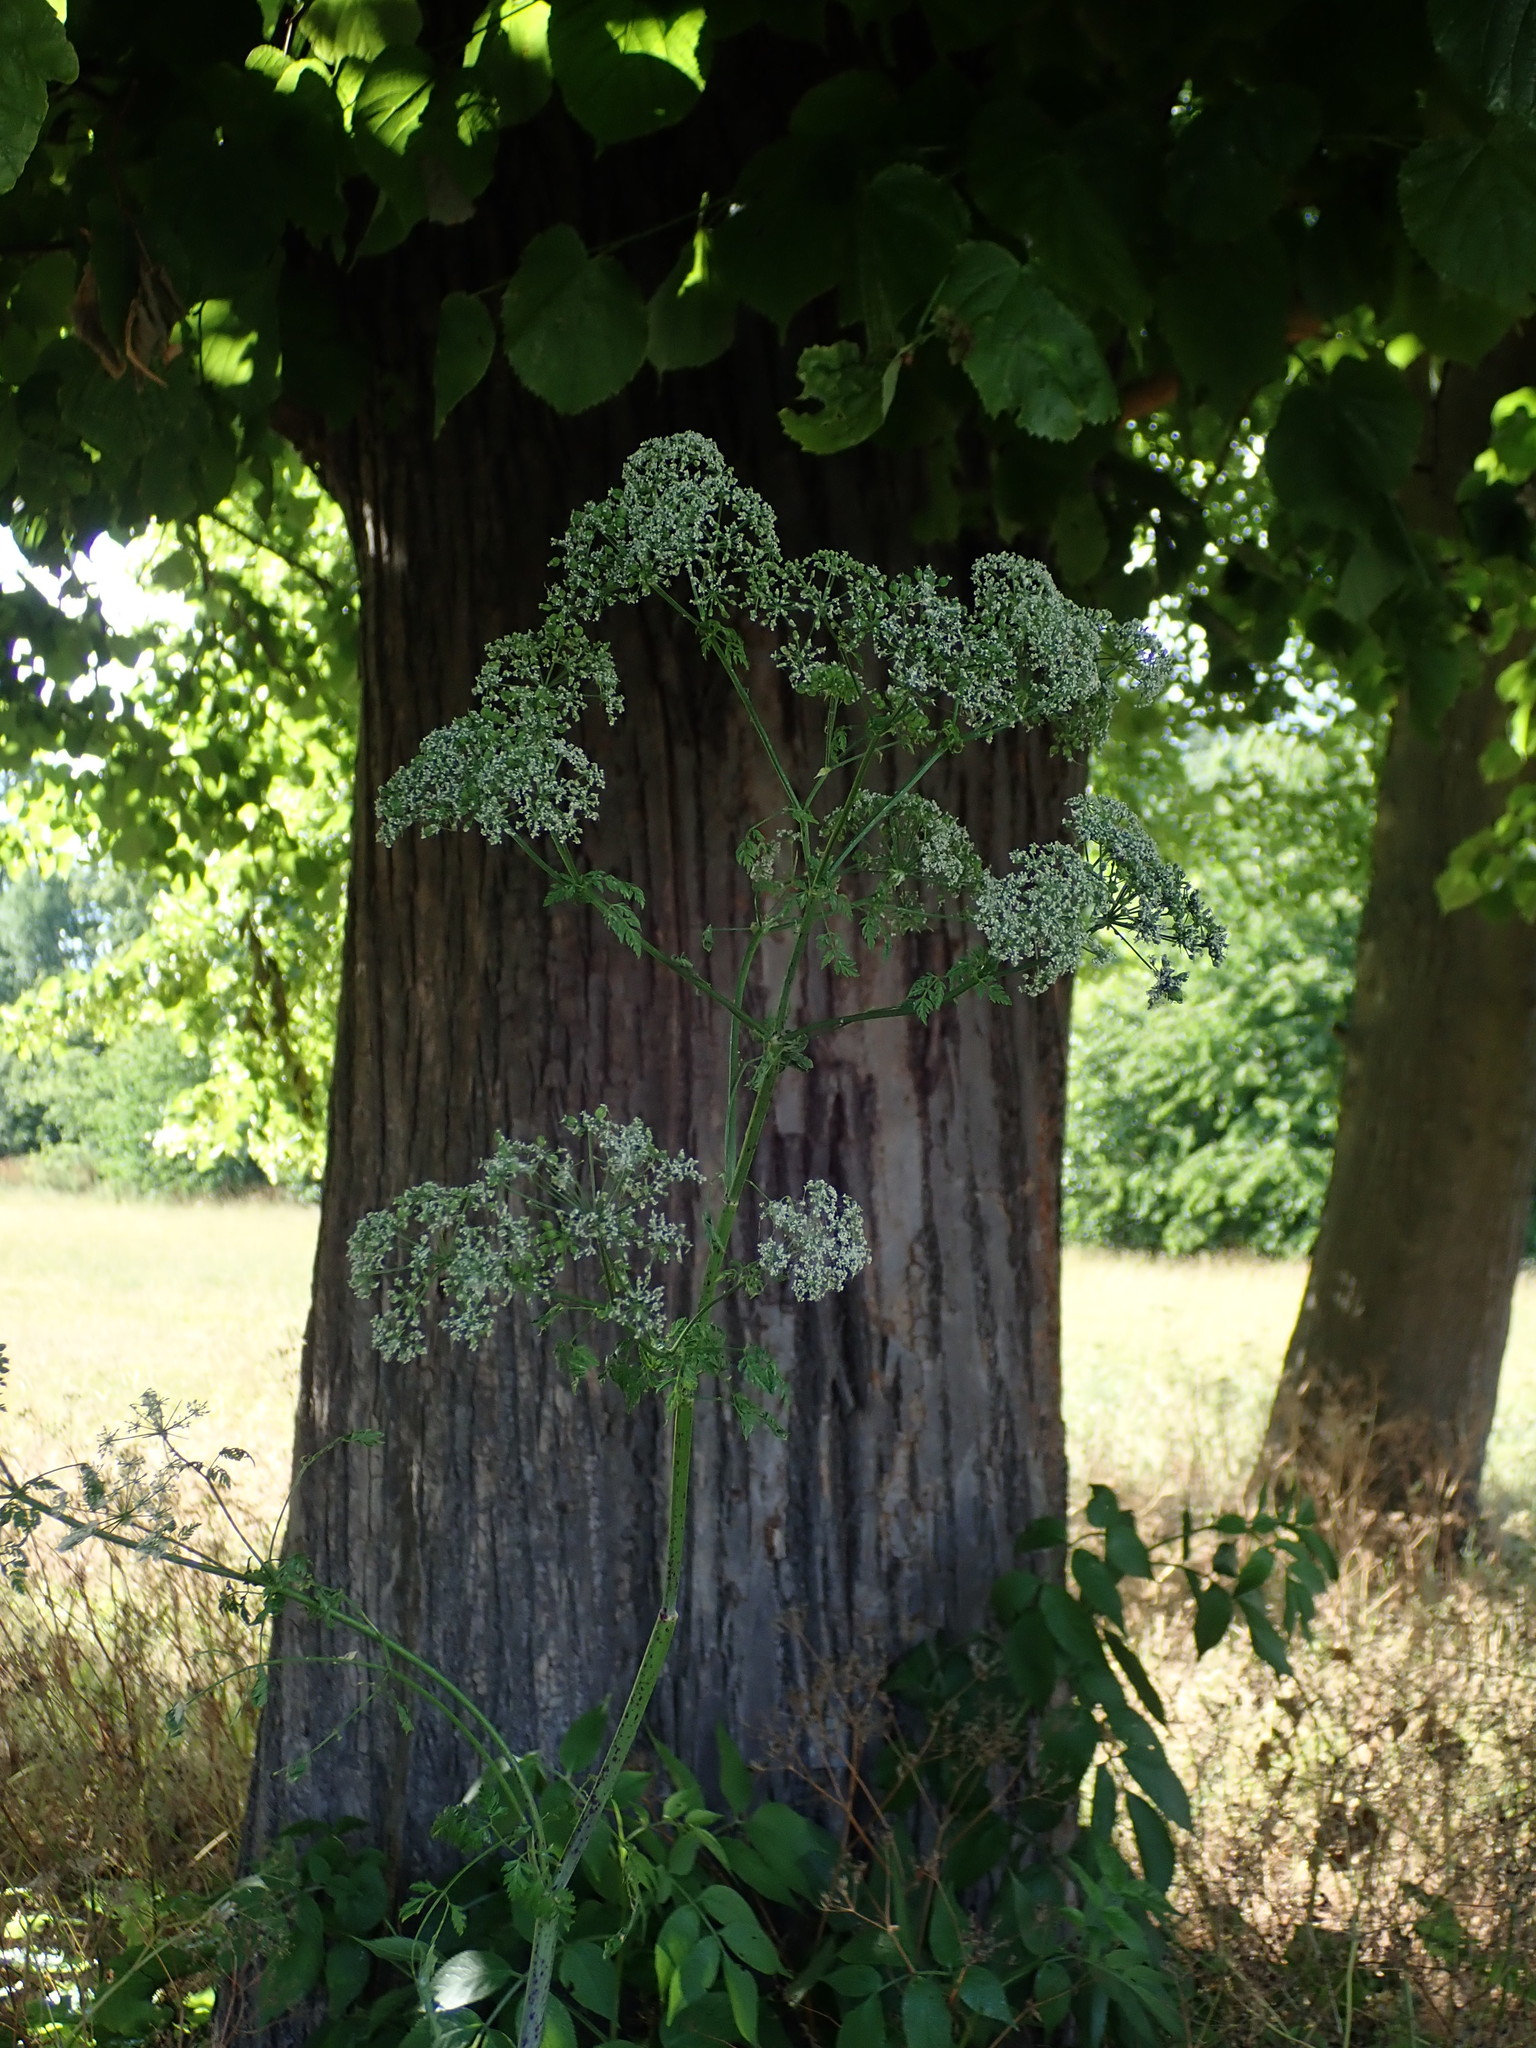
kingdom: Plantae
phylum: Tracheophyta
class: Magnoliopsida
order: Apiales
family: Apiaceae
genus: Conium
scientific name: Conium maculatum
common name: Hemlock
